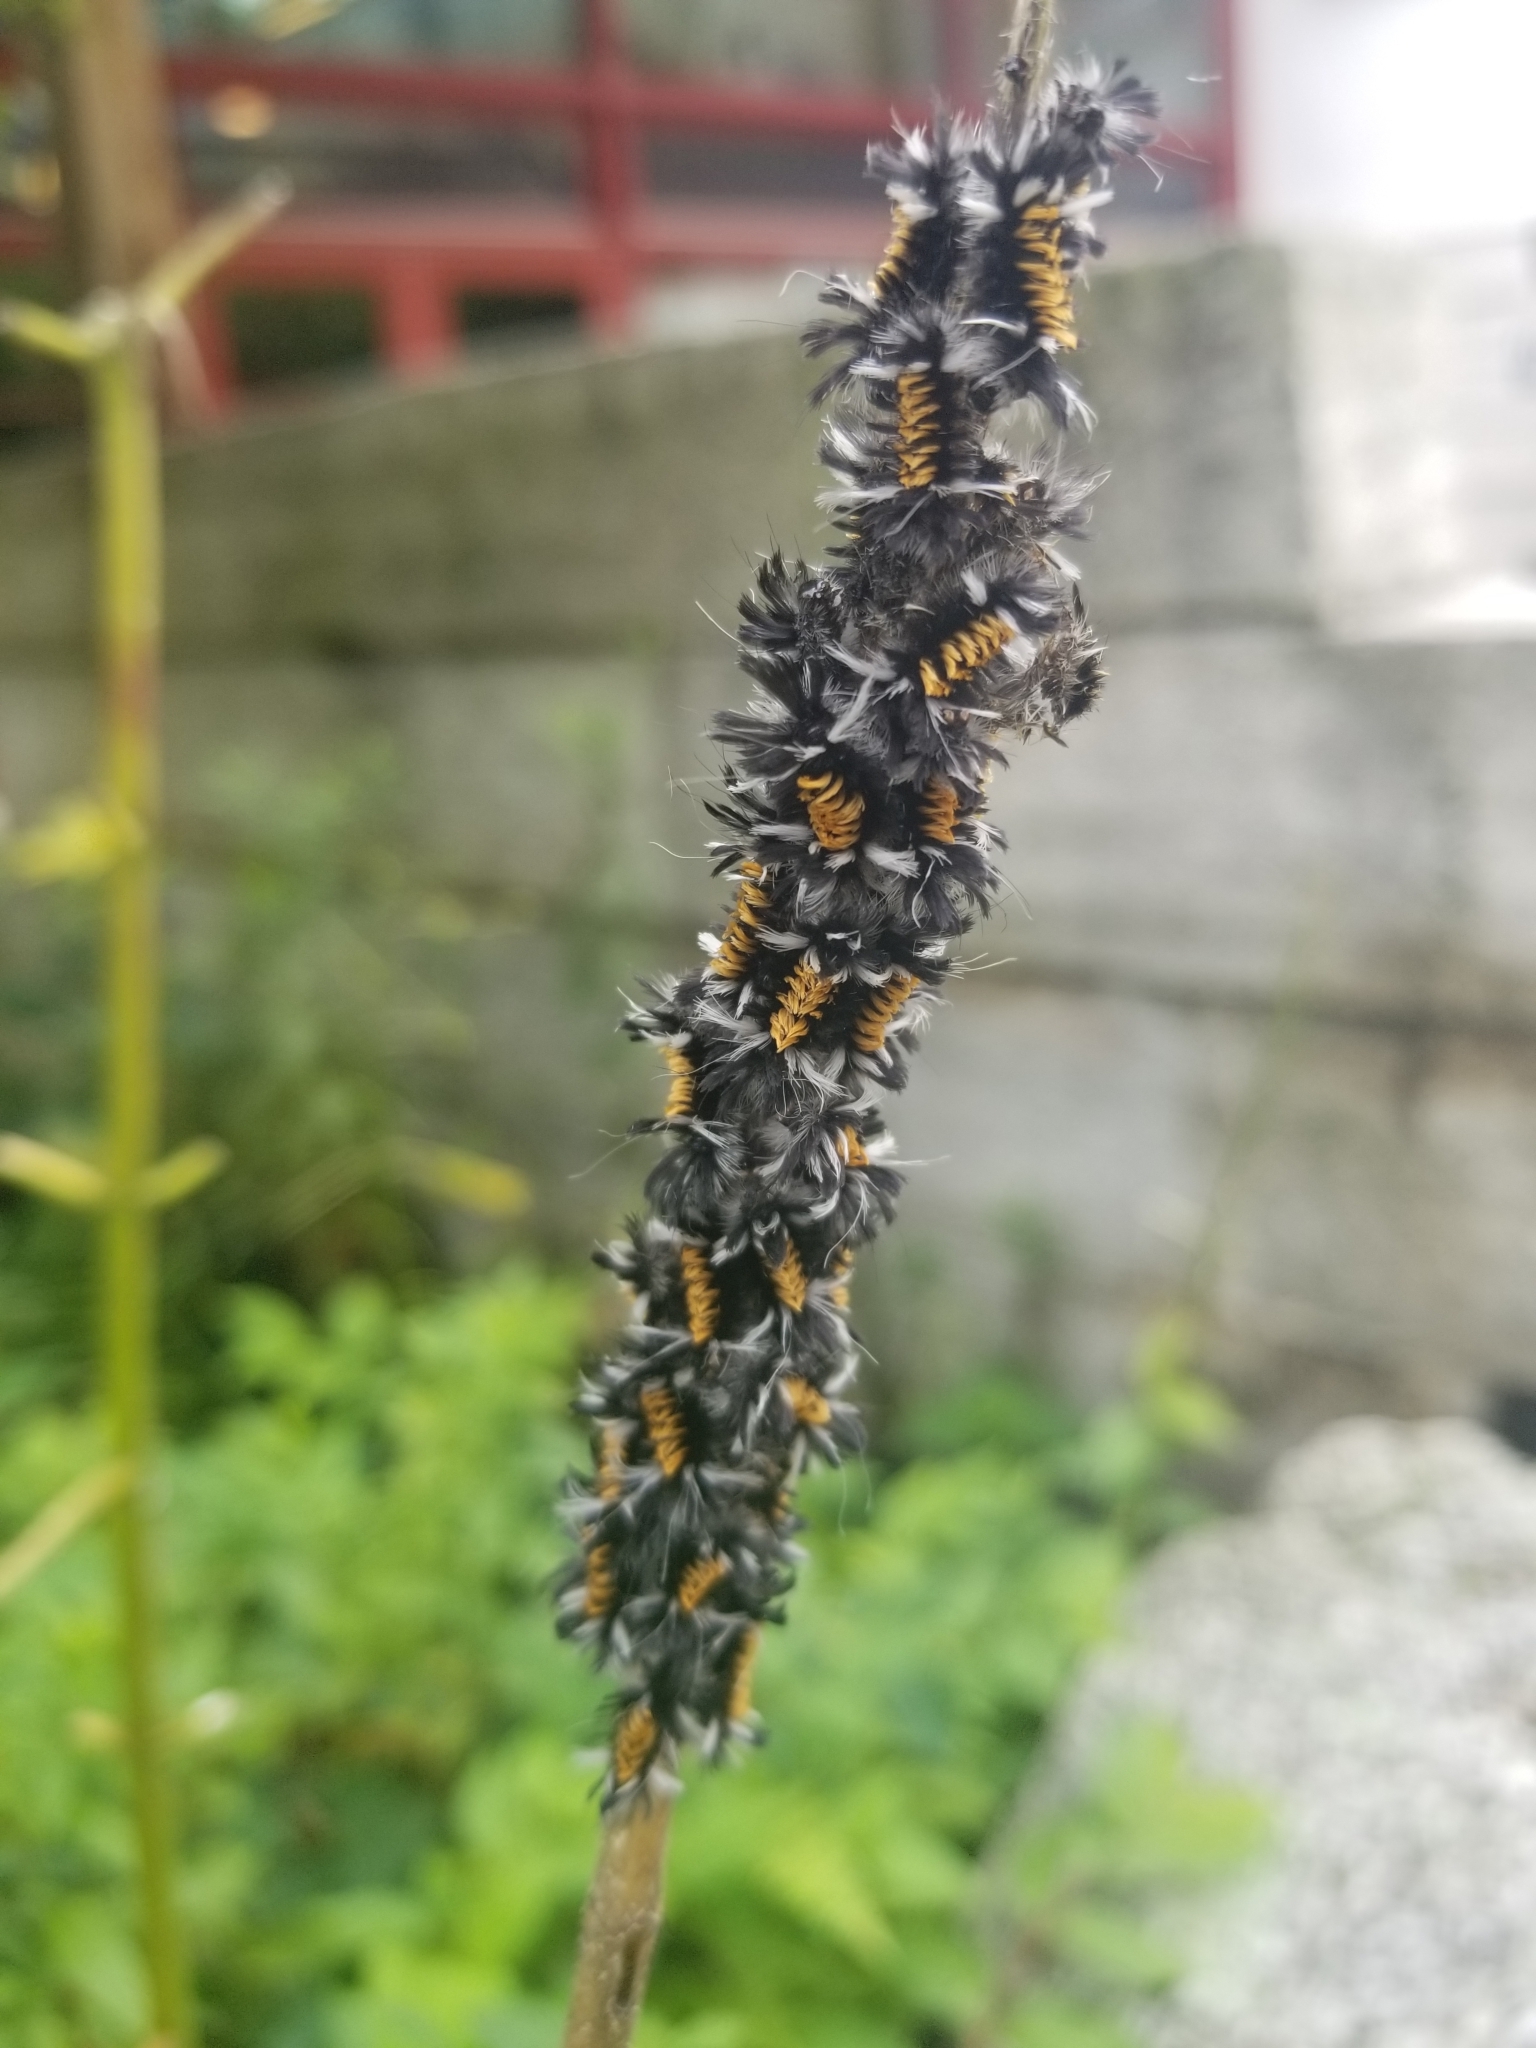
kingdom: Animalia
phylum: Arthropoda
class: Insecta
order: Lepidoptera
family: Erebidae
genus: Euchaetes
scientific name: Euchaetes egle
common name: Milkweed tussock moth
